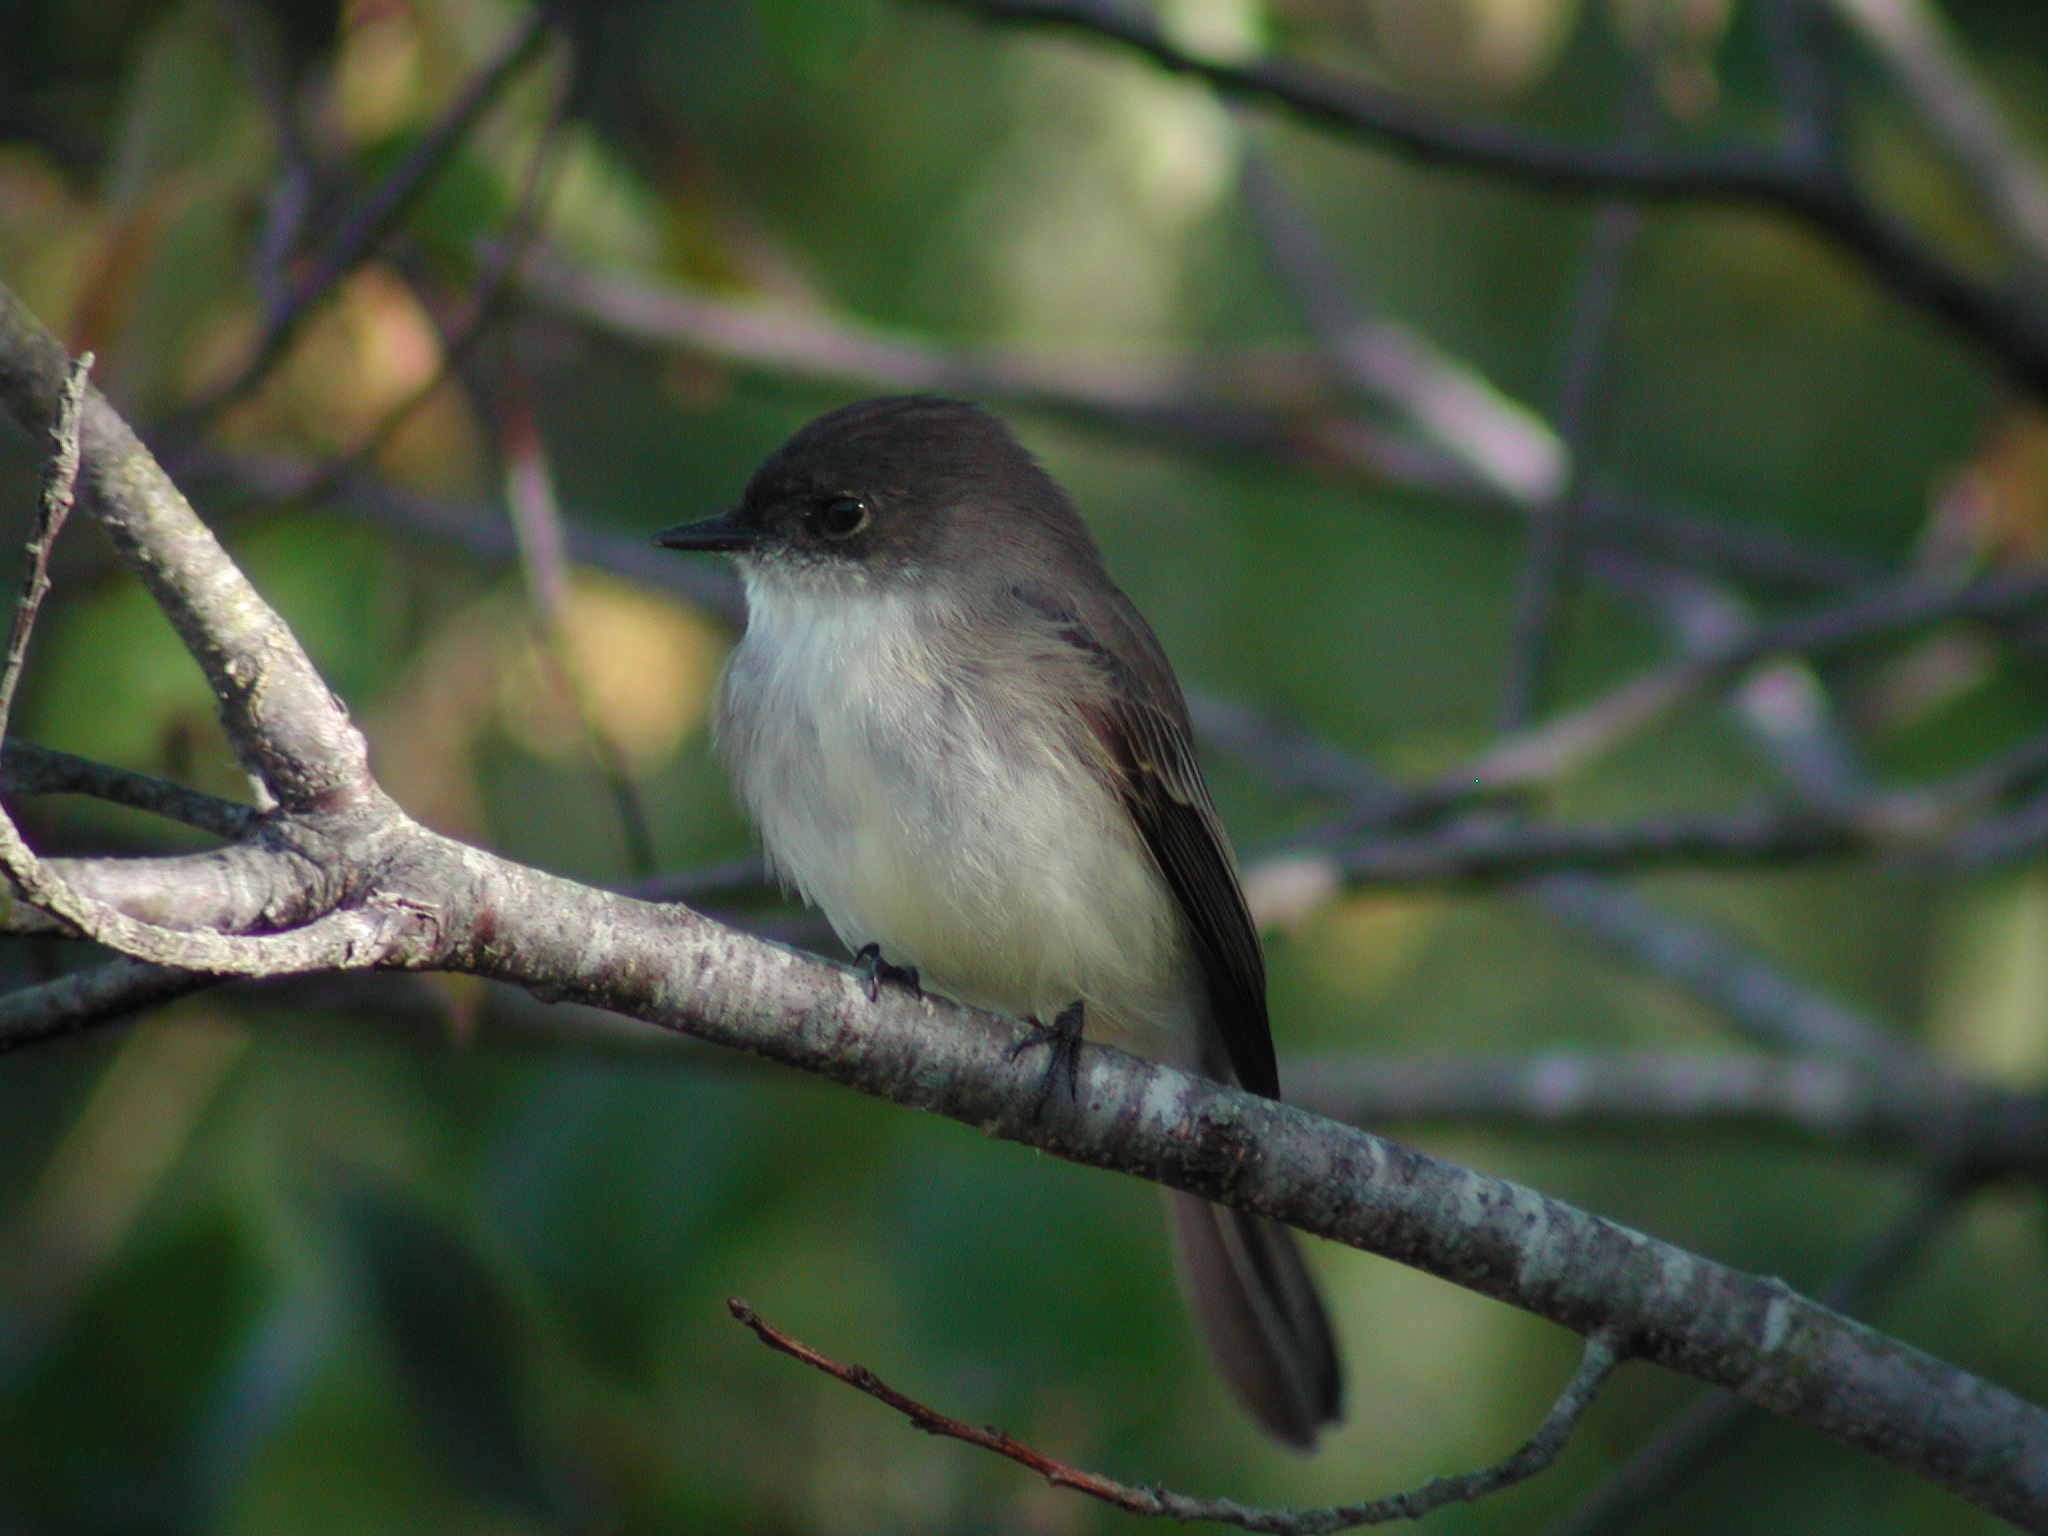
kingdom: Animalia
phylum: Chordata
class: Aves
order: Passeriformes
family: Tyrannidae
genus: Sayornis
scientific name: Sayornis phoebe
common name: Eastern phoebe
